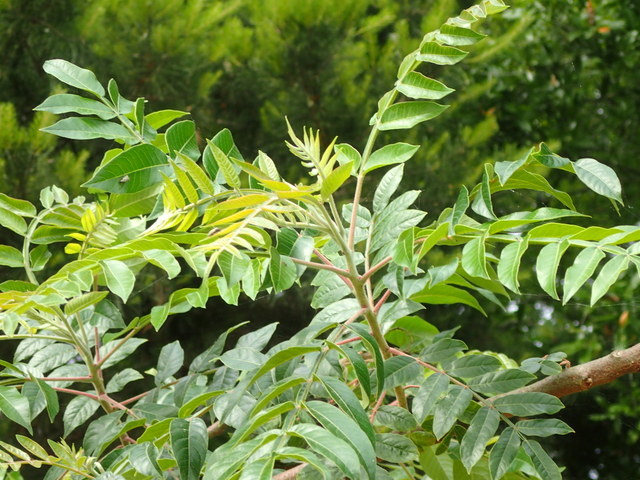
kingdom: Plantae
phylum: Tracheophyta
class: Magnoliopsida
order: Sapindales
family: Anacardiaceae
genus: Rhus
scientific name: Rhus copallina
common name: Shining sumac
